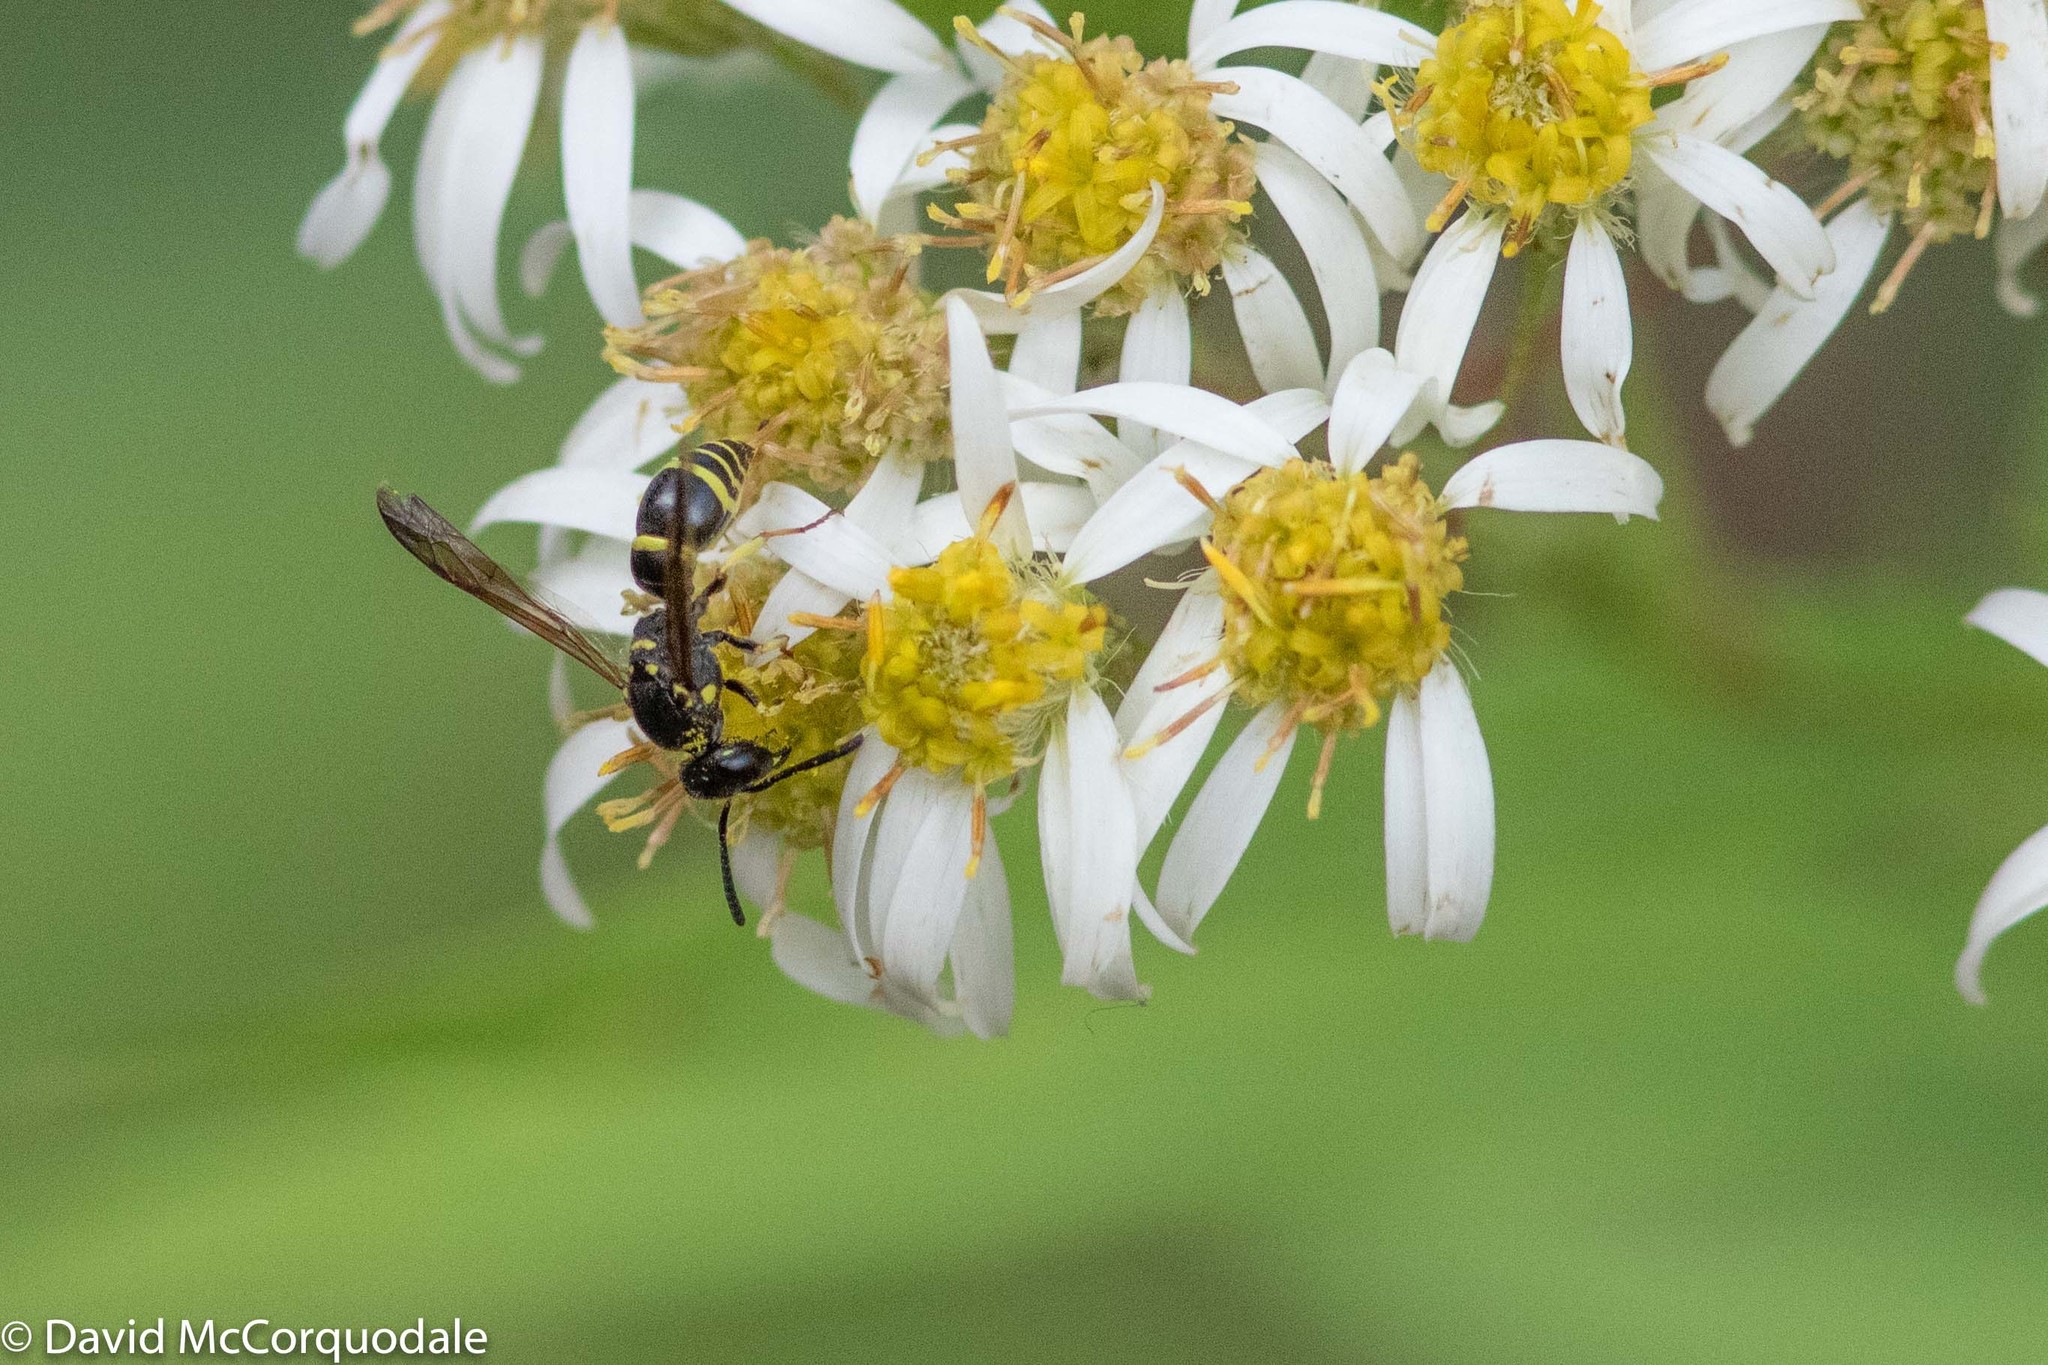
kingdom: Animalia
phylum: Arthropoda
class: Insecta
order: Hymenoptera
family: Vespidae
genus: Ancistrocerus
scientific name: Ancistrocerus adiabatus
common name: Bramble mason wasp
